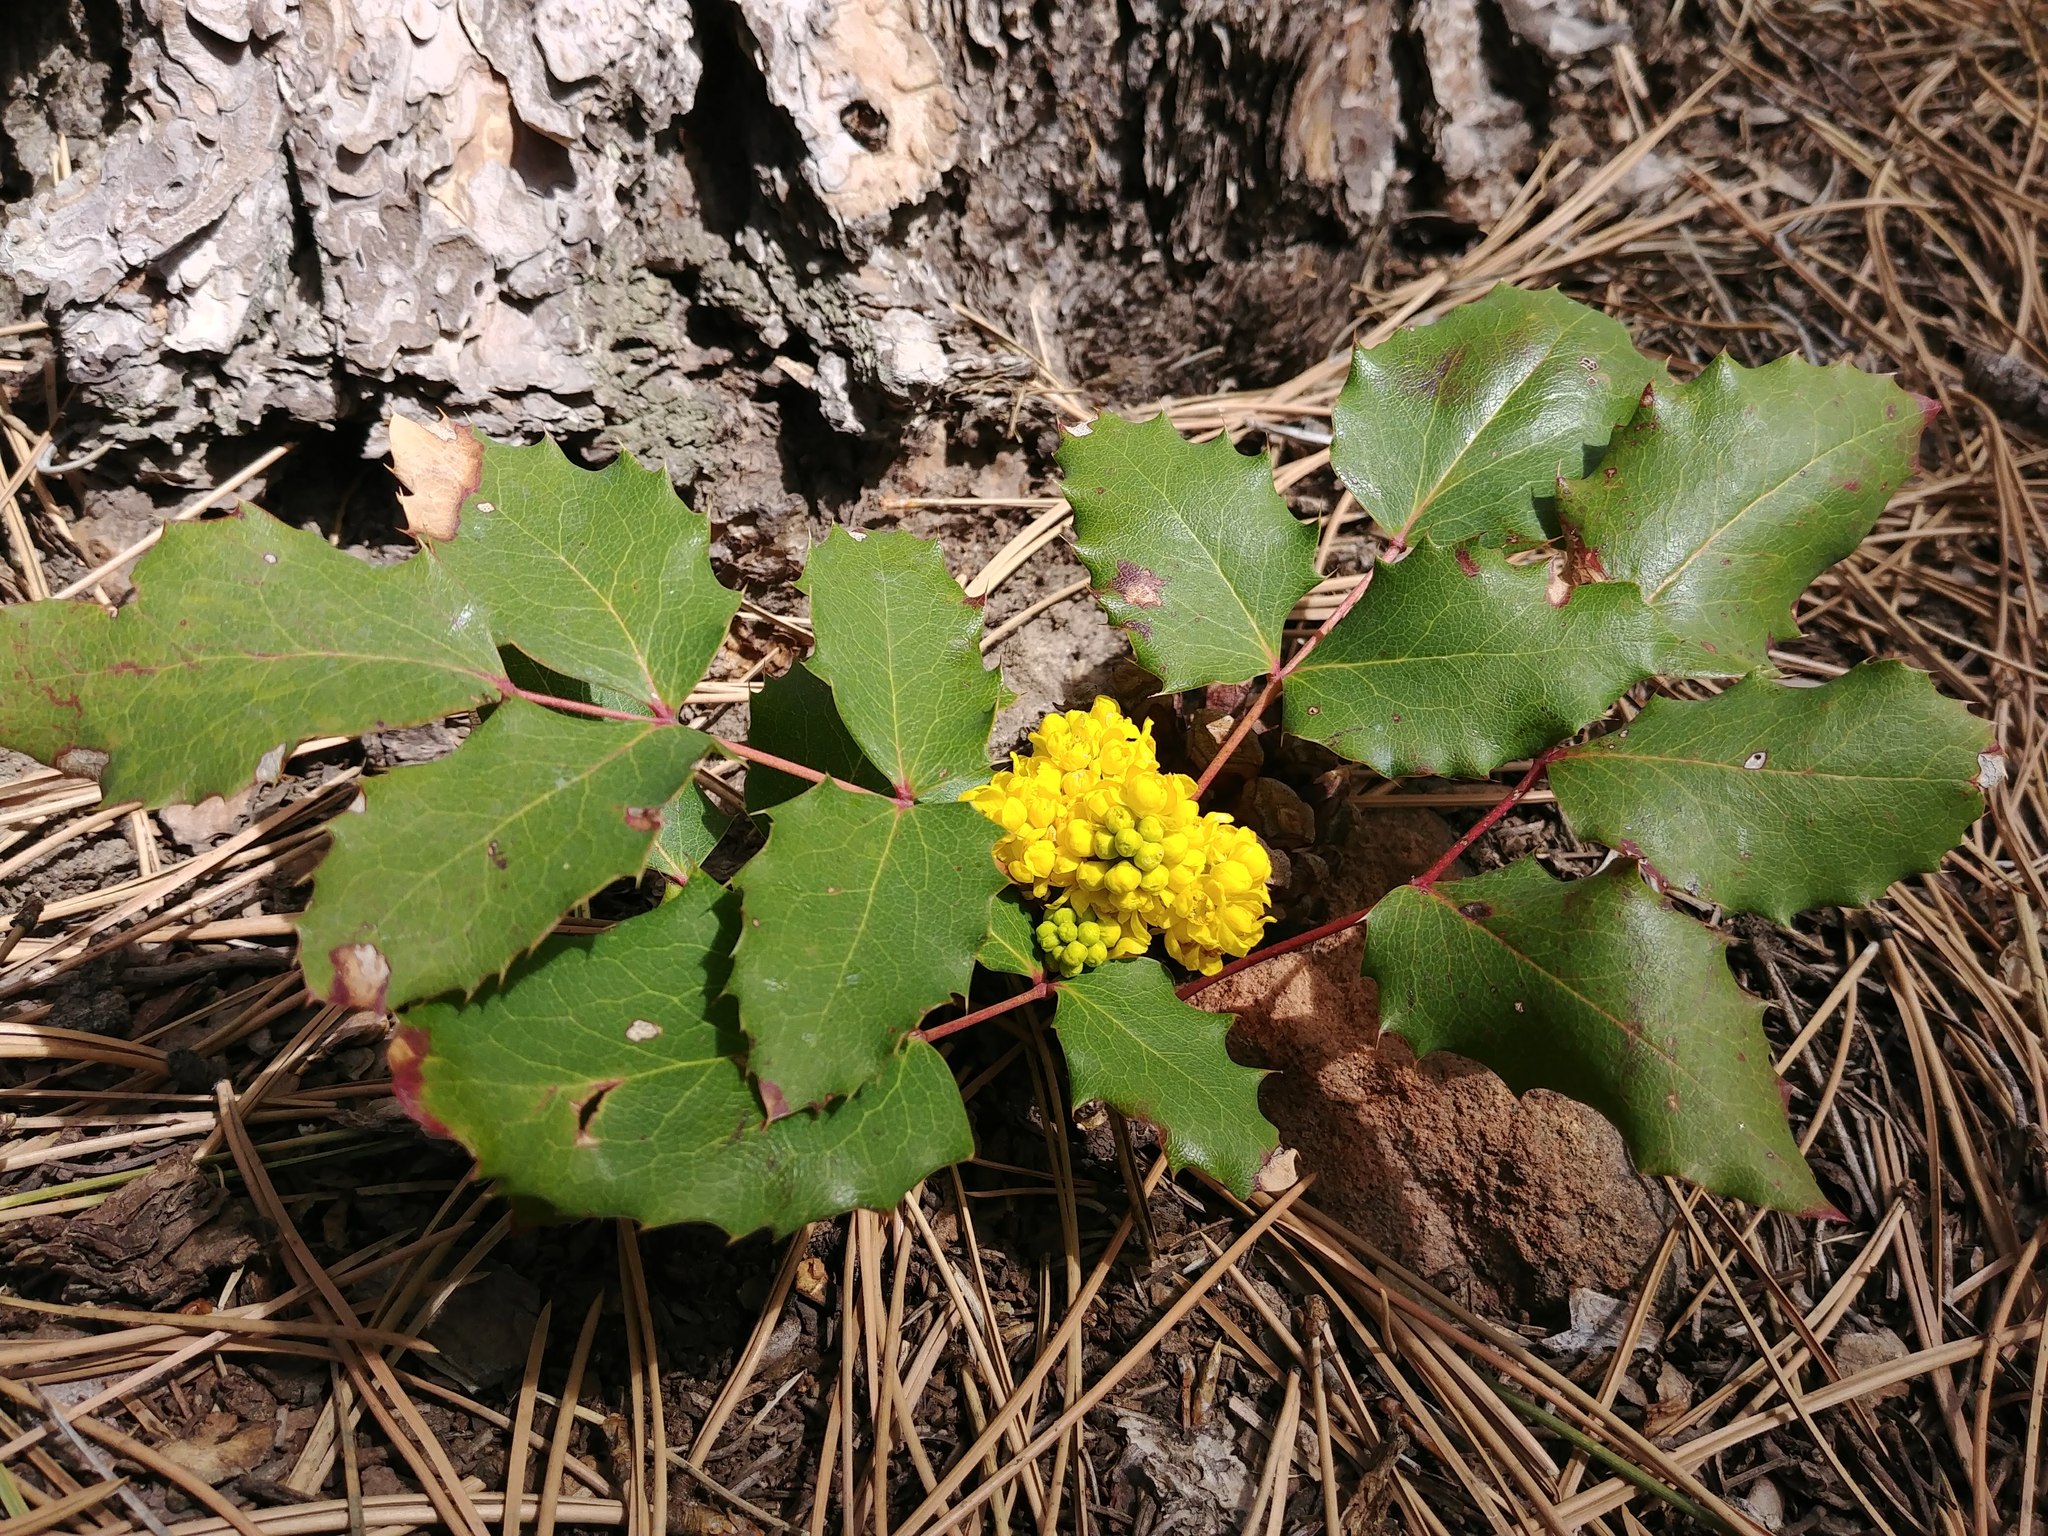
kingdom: Plantae
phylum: Tracheophyta
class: Magnoliopsida
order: Ranunculales
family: Berberidaceae
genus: Mahonia
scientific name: Mahonia repens
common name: Creeping oregon-grape
